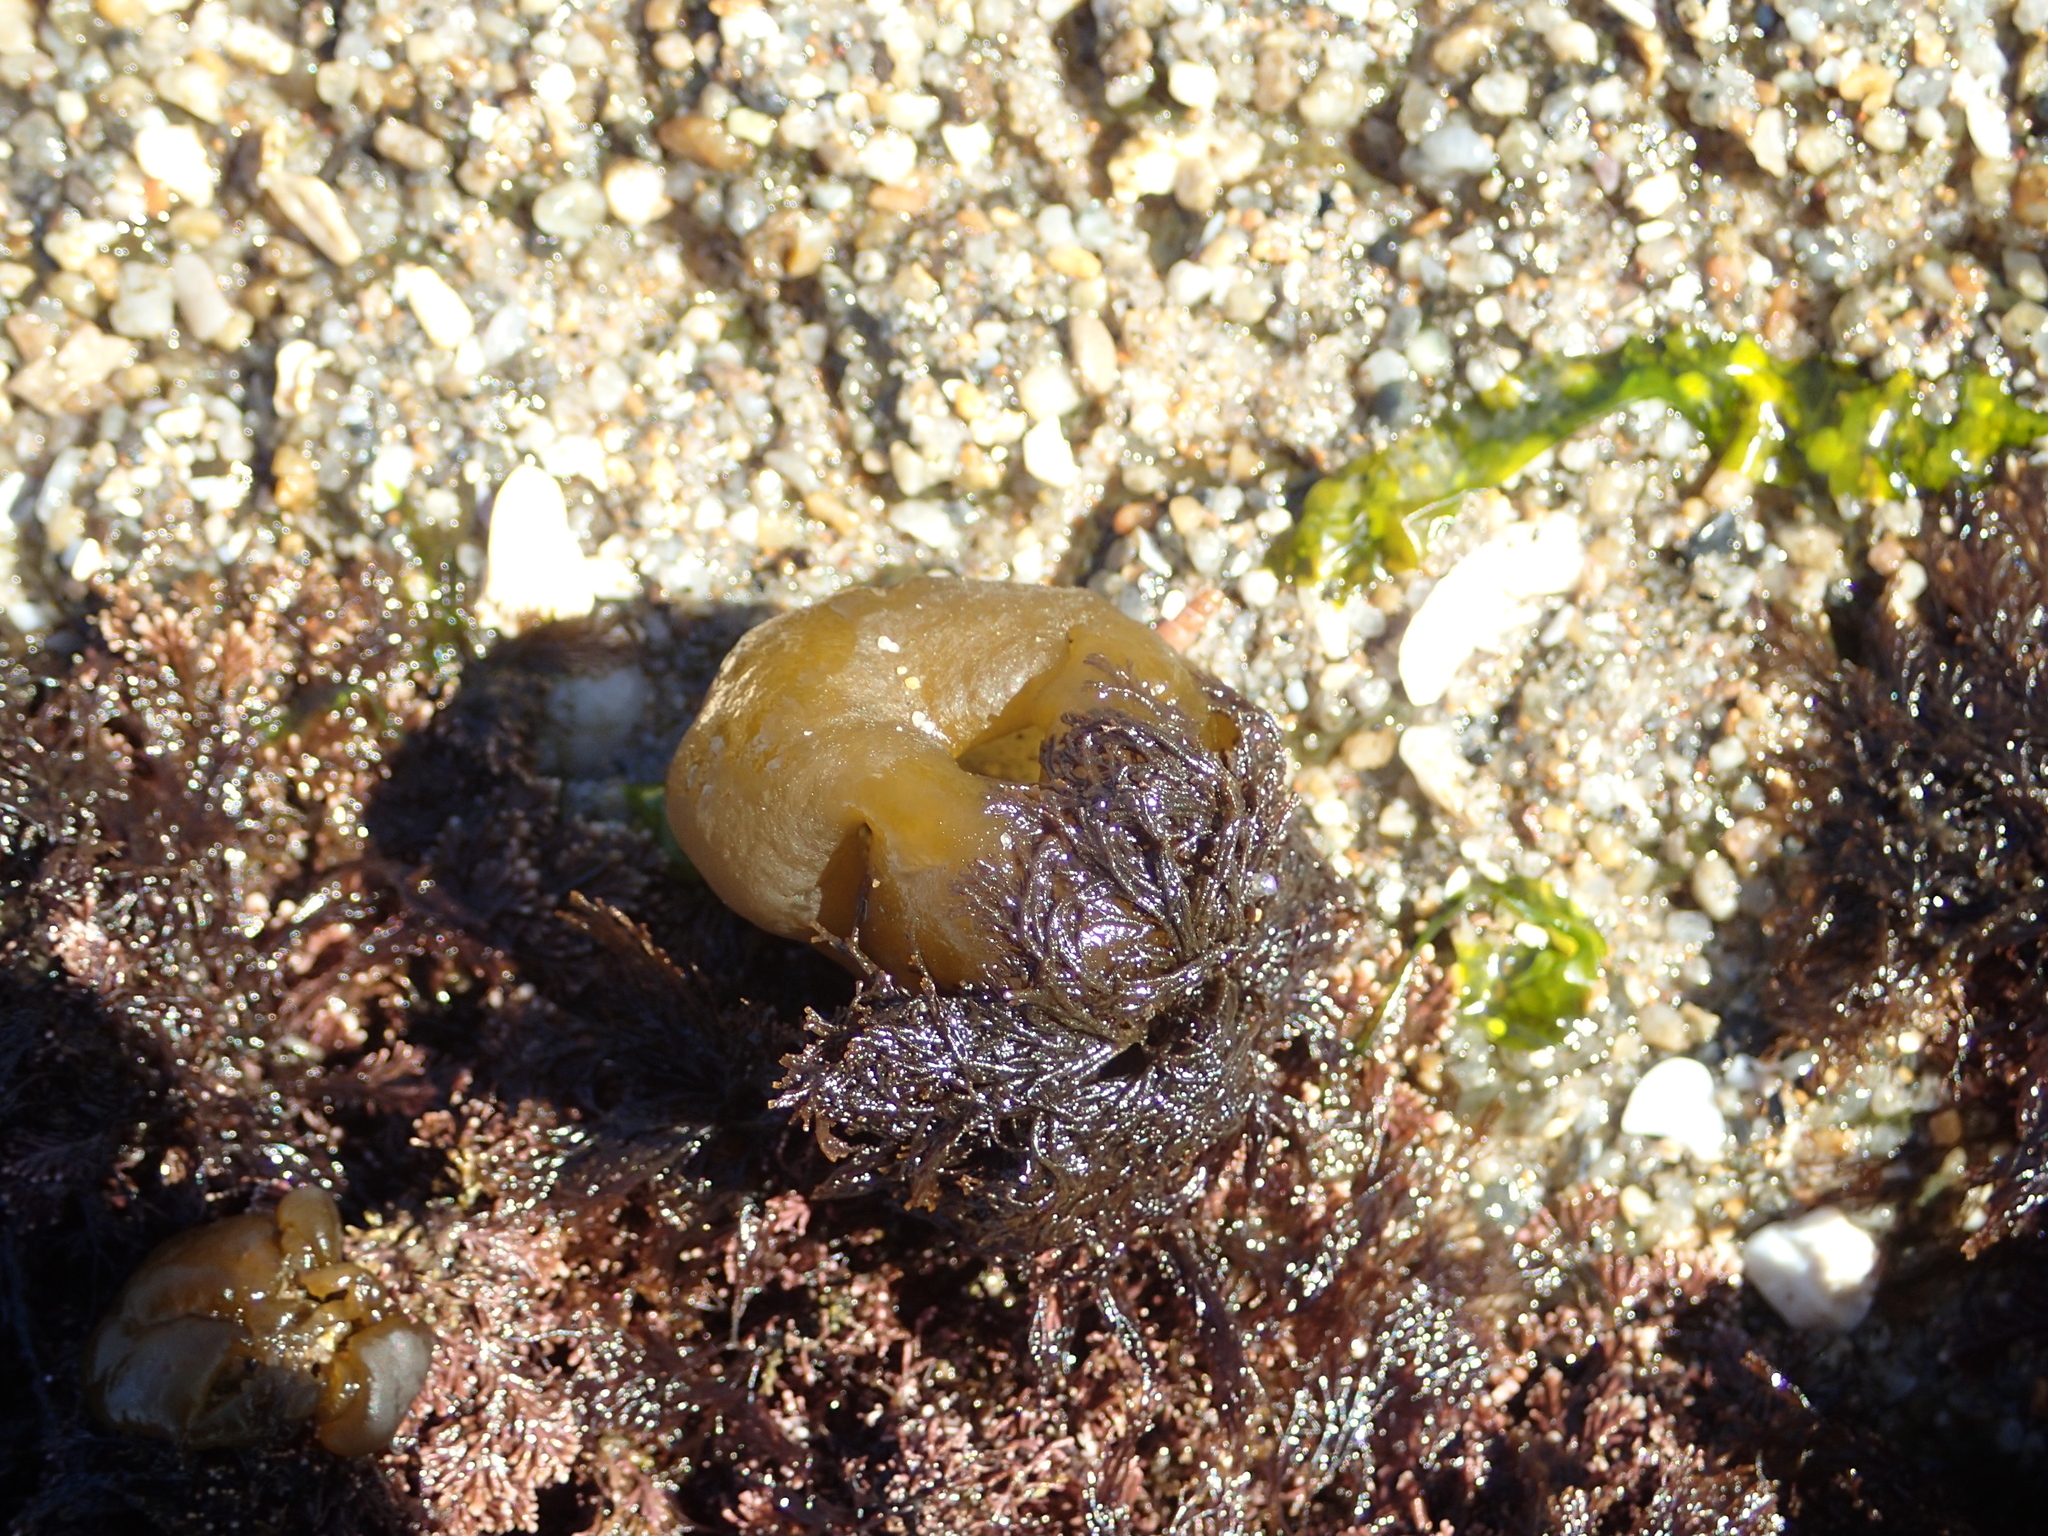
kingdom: Chromista
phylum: Ochrophyta
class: Phaeophyceae
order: Scytosiphonales
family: Scytosiphonaceae
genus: Colpomenia
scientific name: Colpomenia peregrina
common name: Oyster thief
